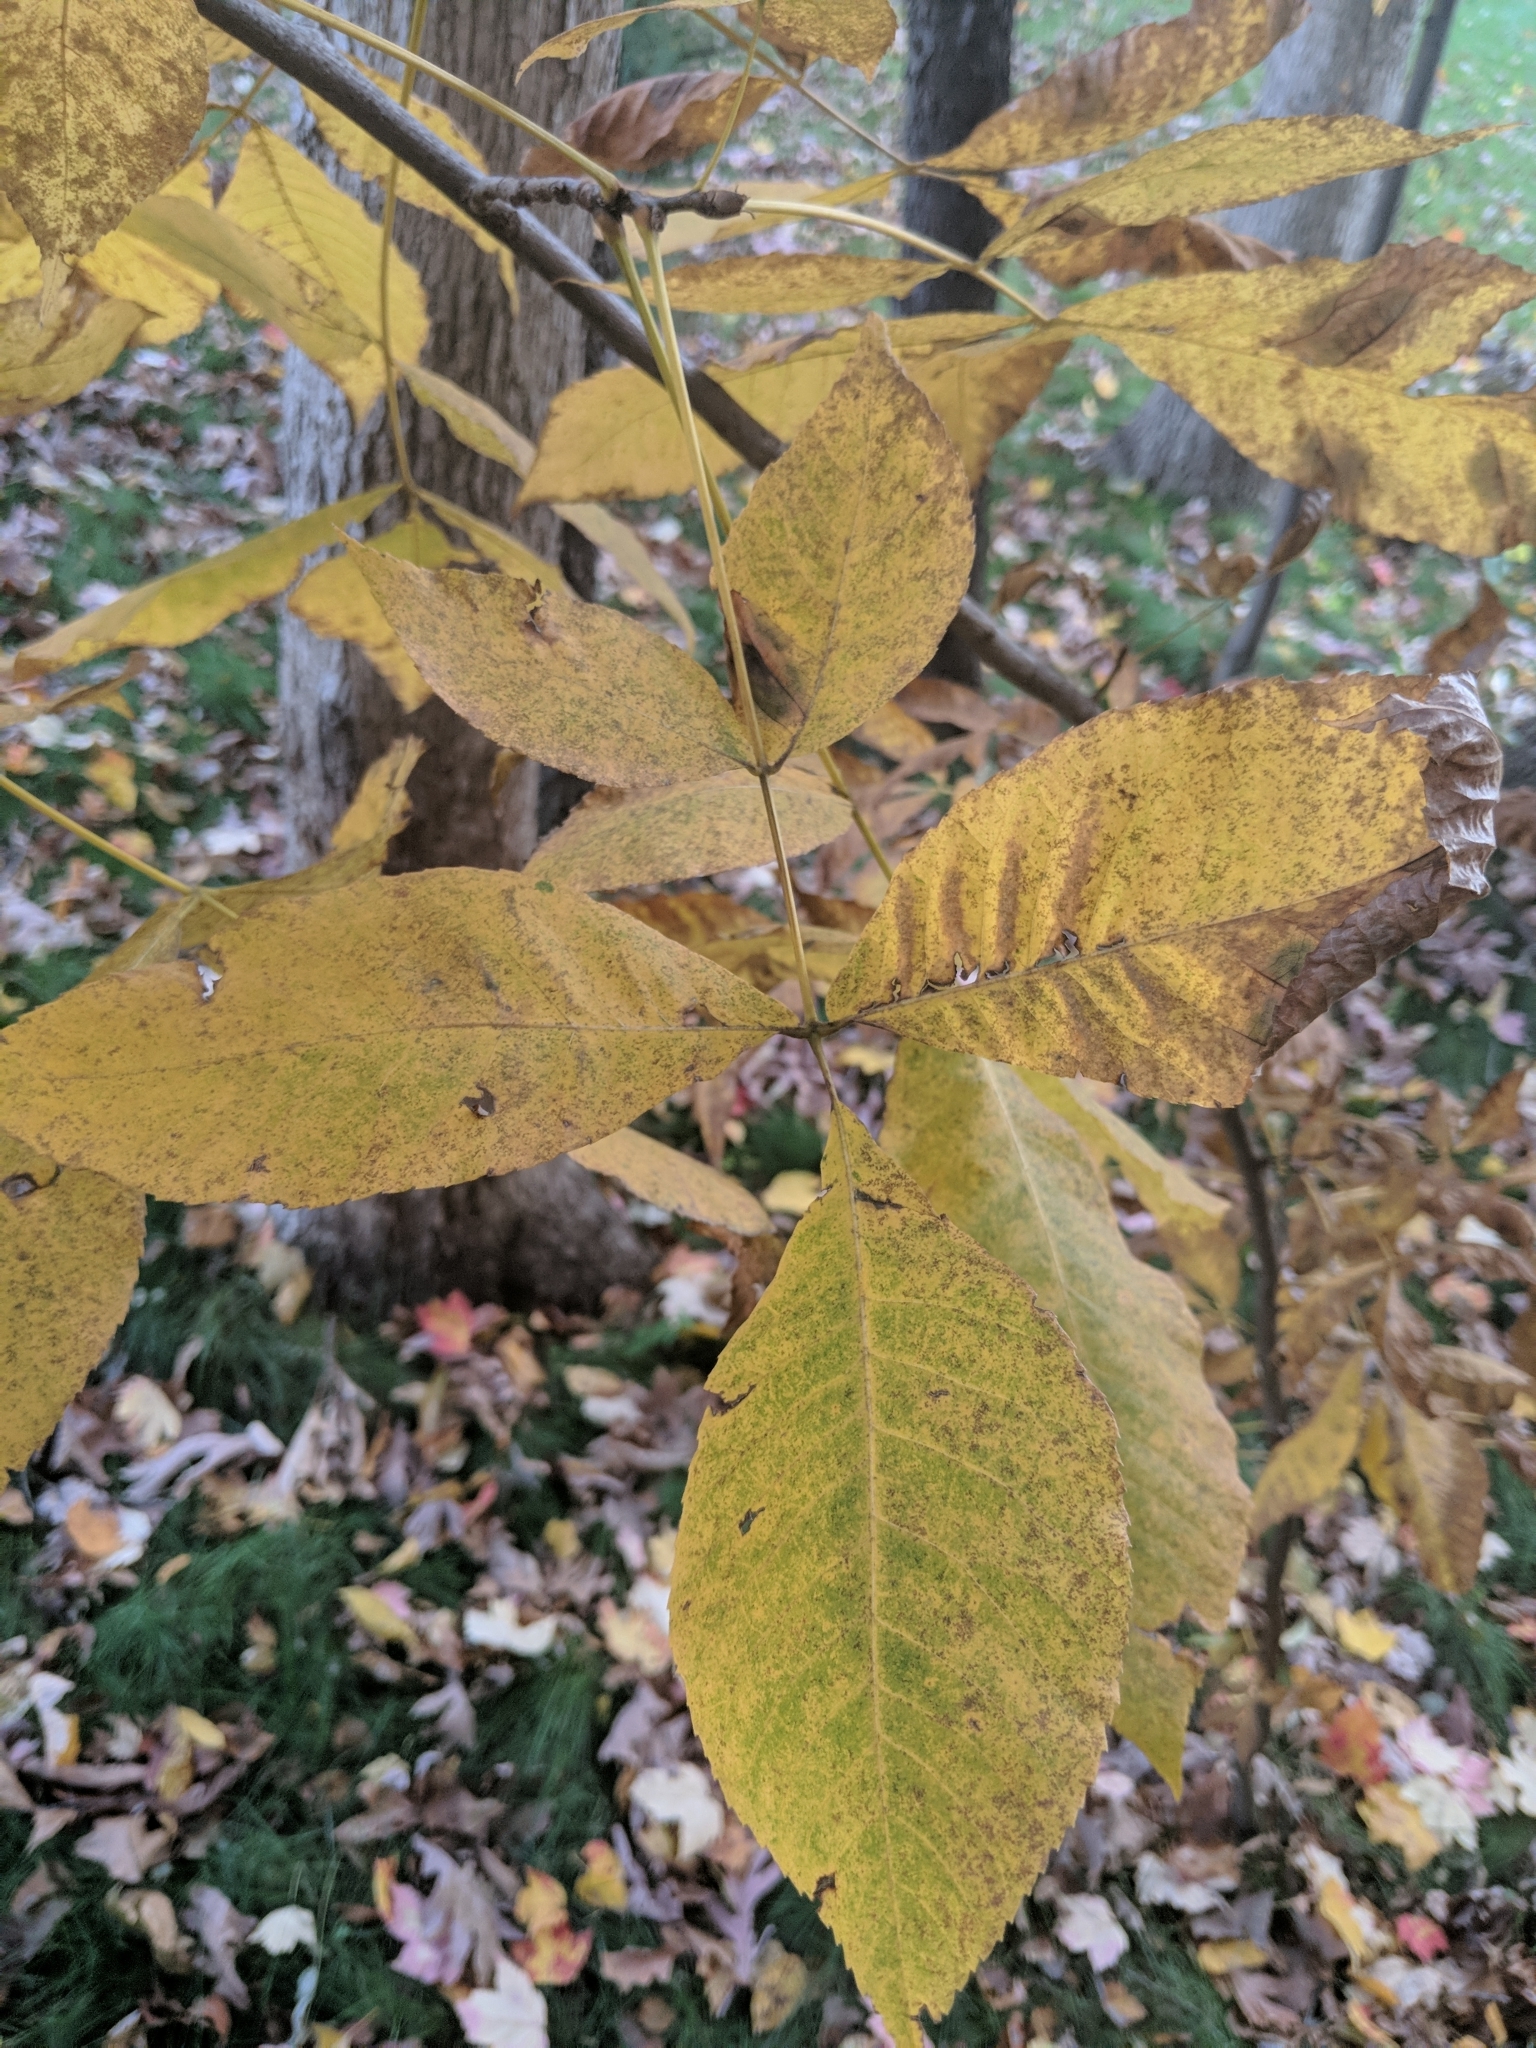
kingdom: Plantae
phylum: Tracheophyta
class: Magnoliopsida
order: Fagales
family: Juglandaceae
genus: Carya
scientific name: Carya alba
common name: Mockernut hickory
